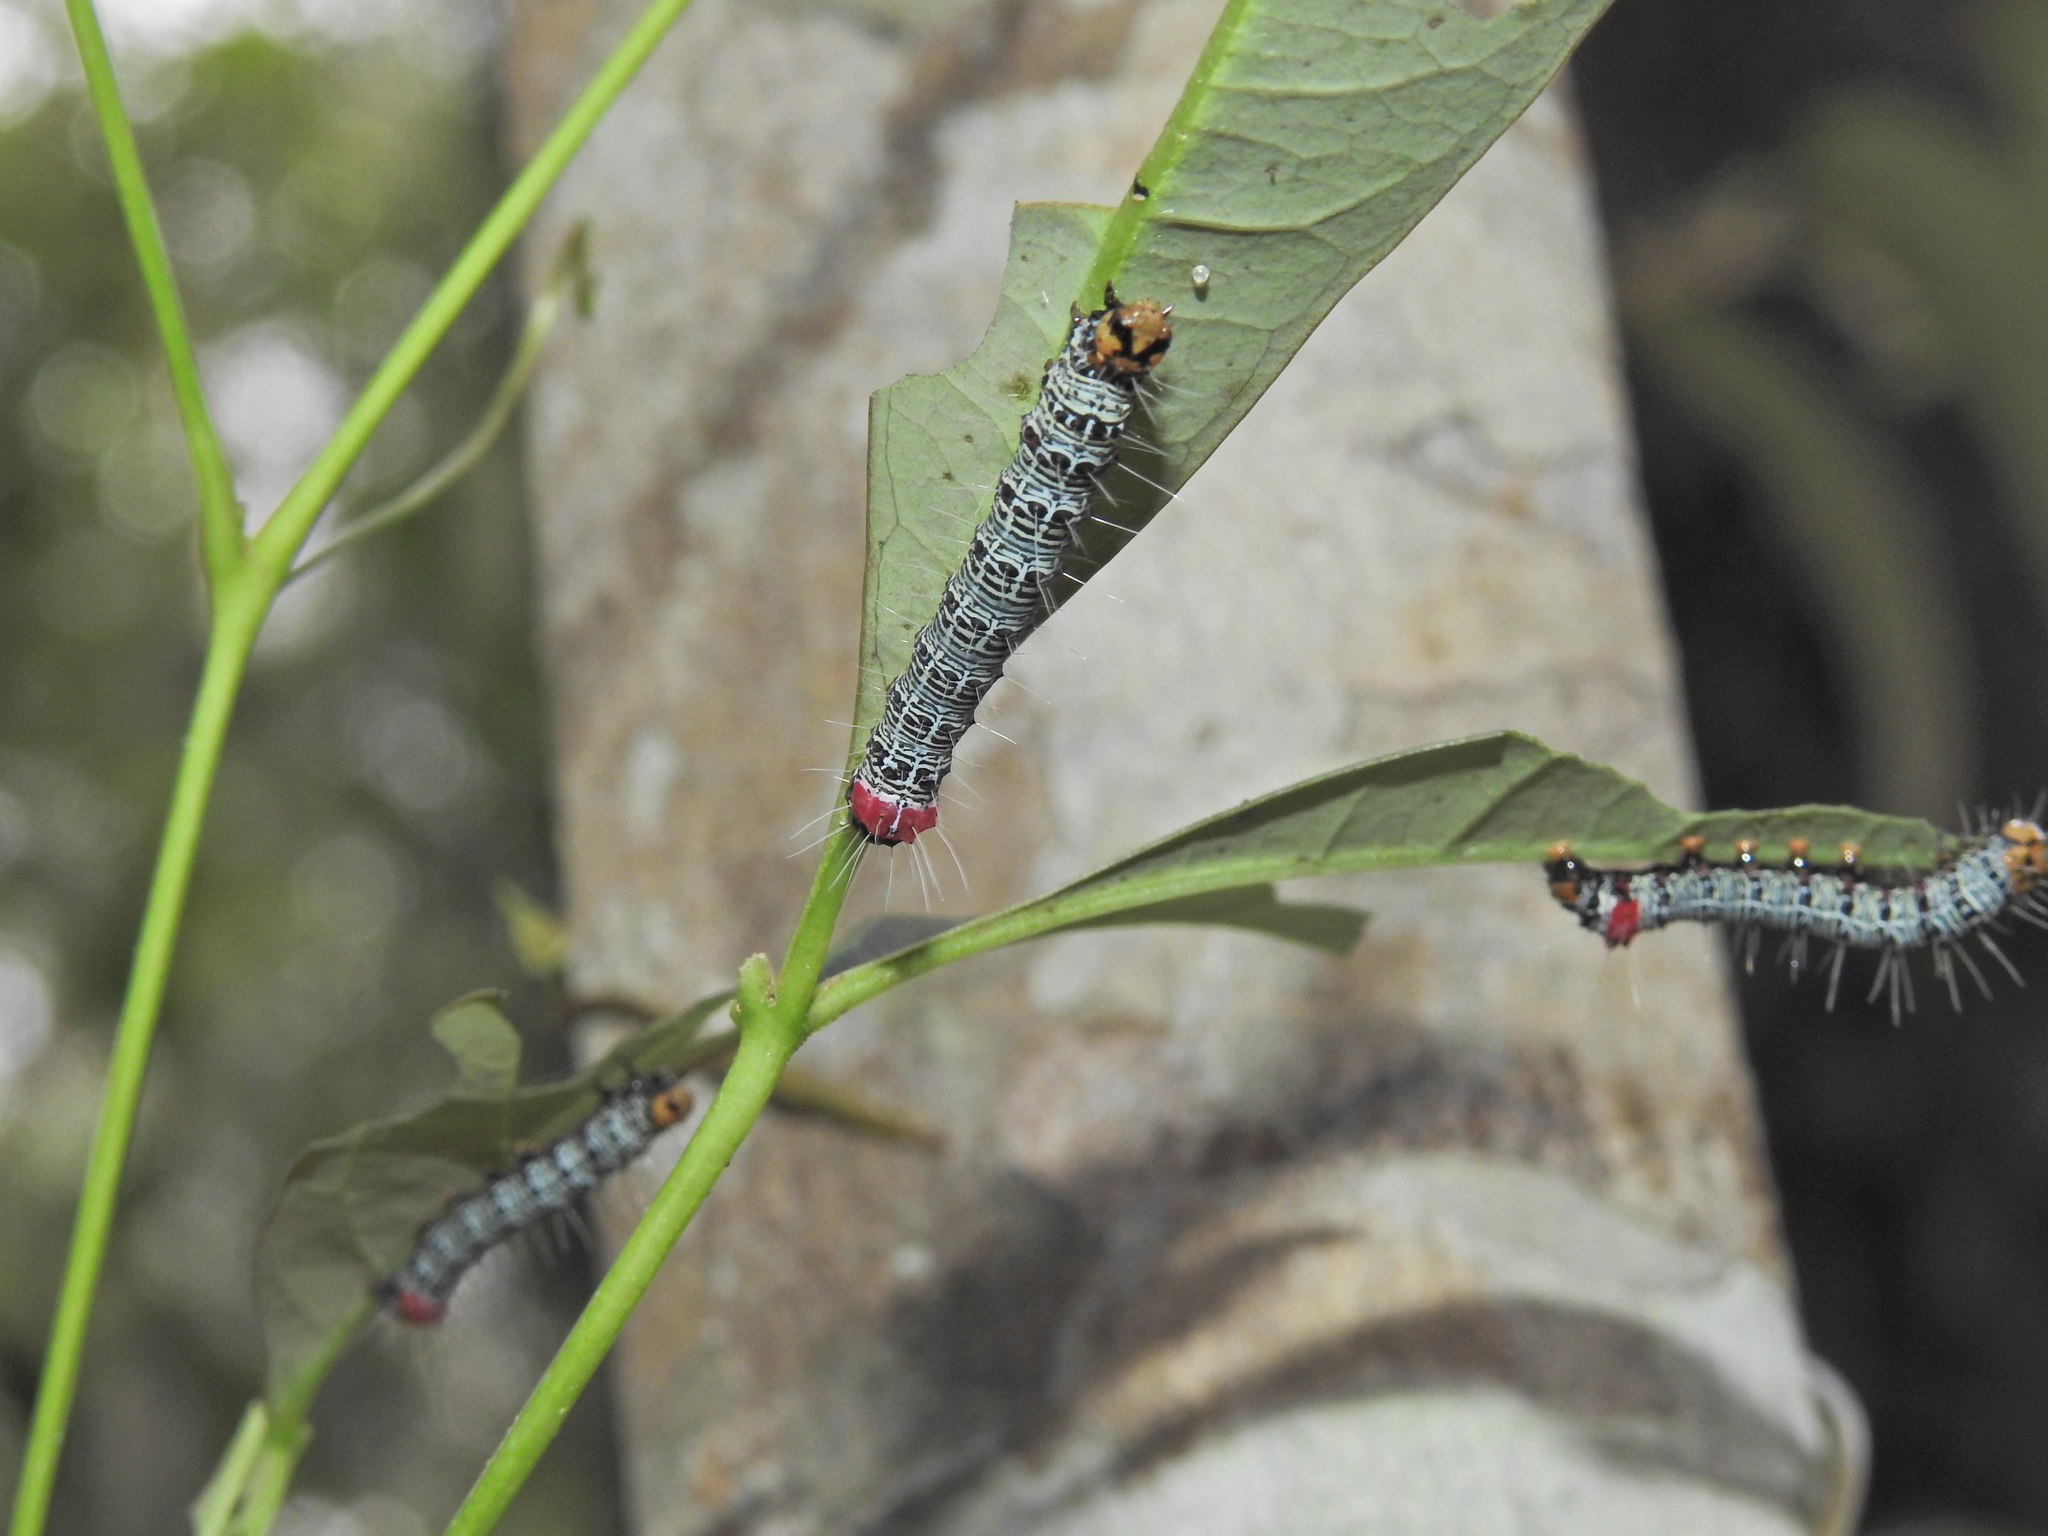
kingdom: Animalia
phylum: Arthropoda
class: Insecta
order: Lepidoptera
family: Noctuidae
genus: Phalaenoides
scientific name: Phalaenoides glycinae
